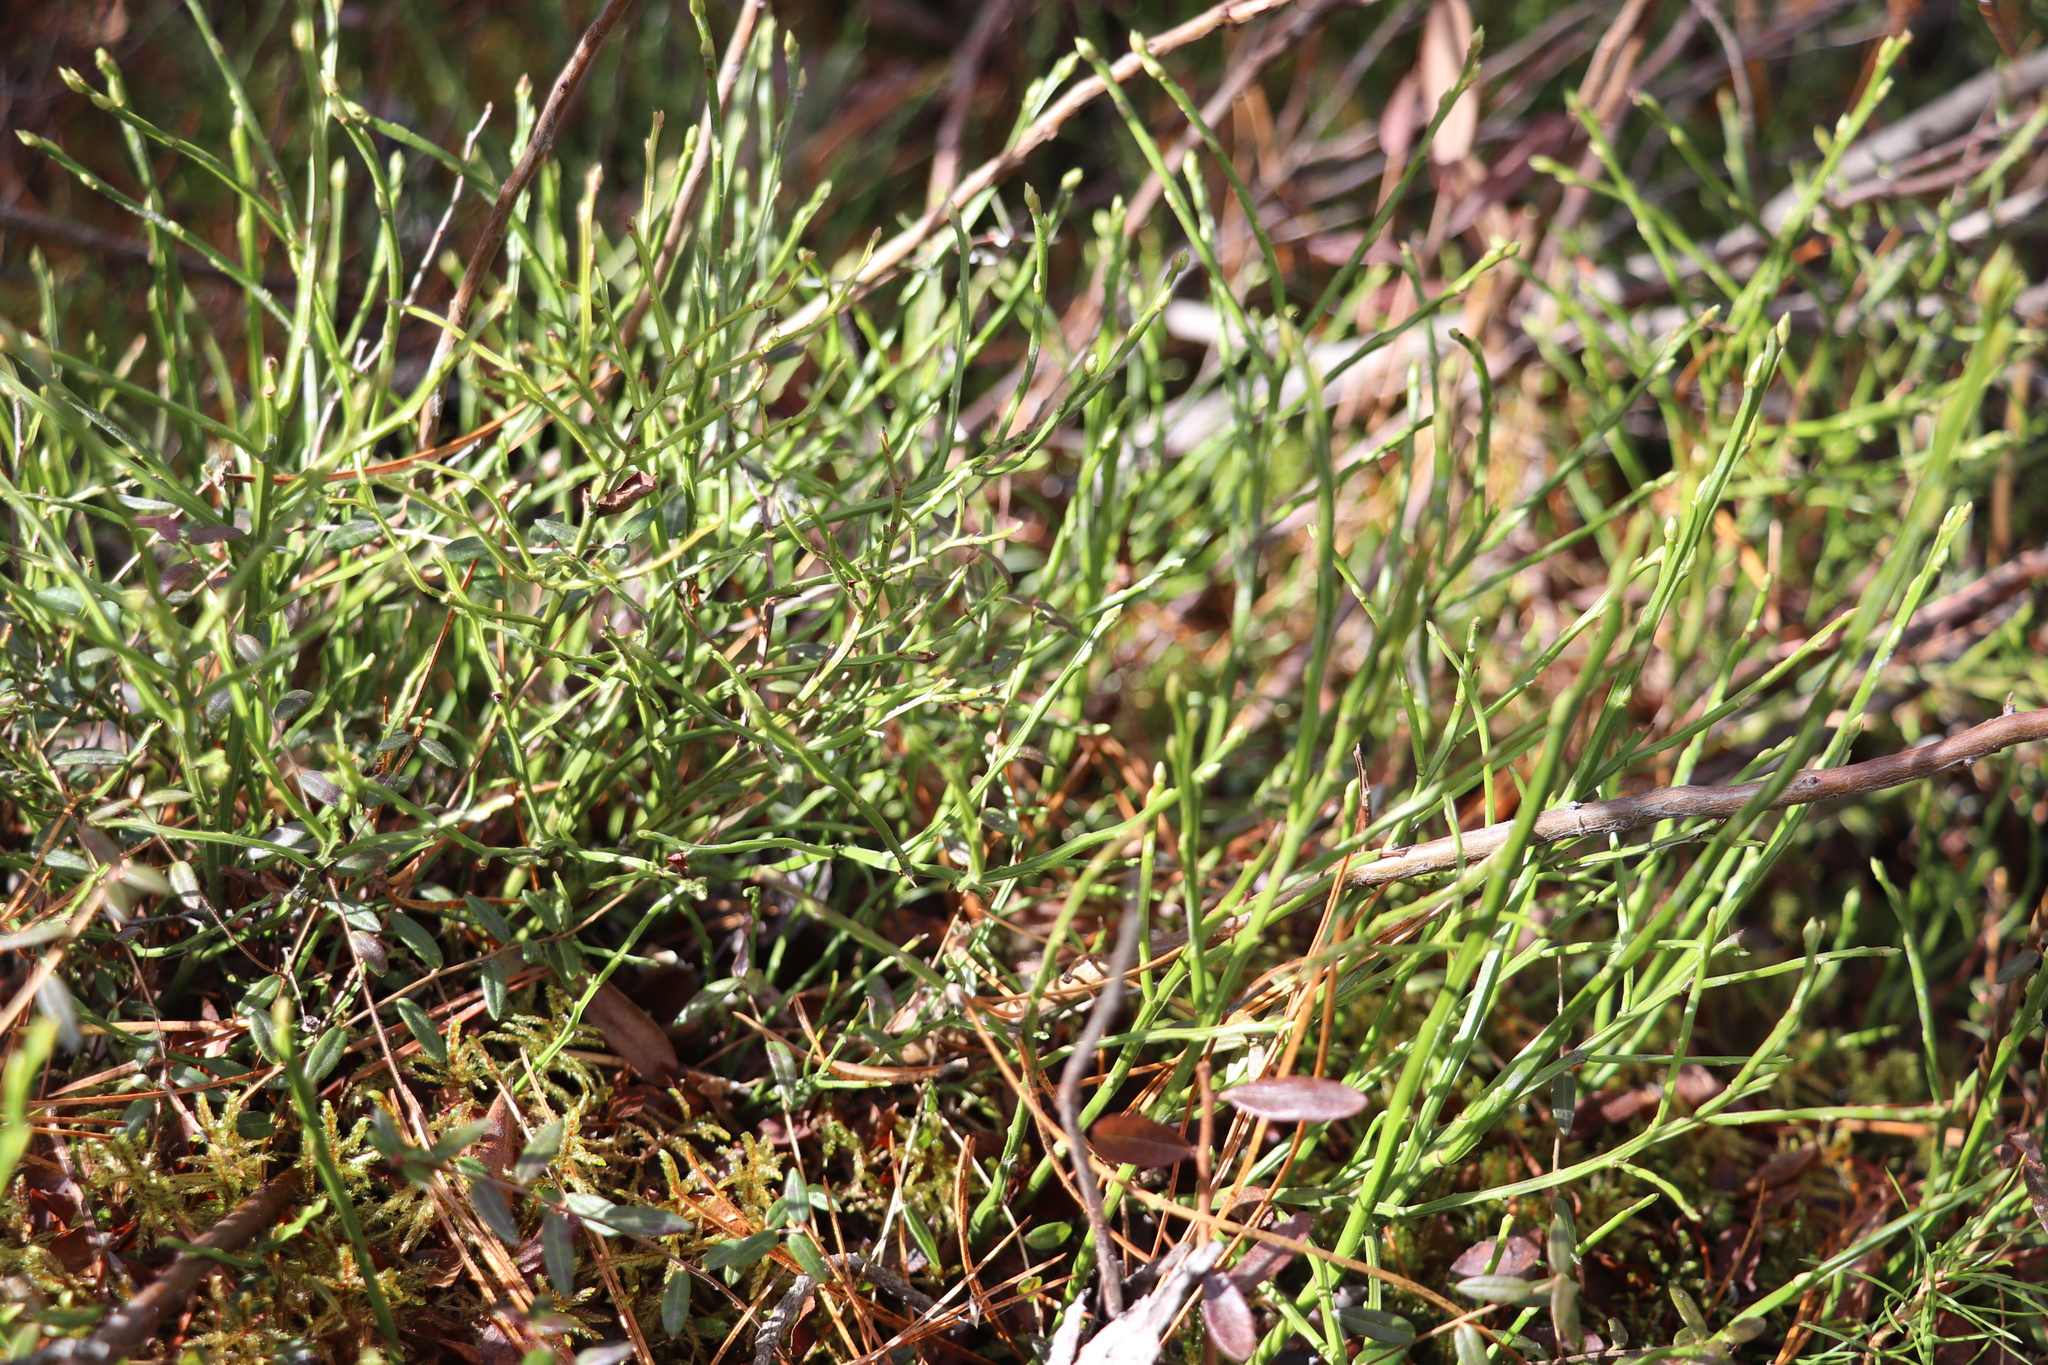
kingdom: Plantae
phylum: Tracheophyta
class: Magnoliopsida
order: Ericales
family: Ericaceae
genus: Vaccinium
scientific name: Vaccinium myrtillus
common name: Bilberry
